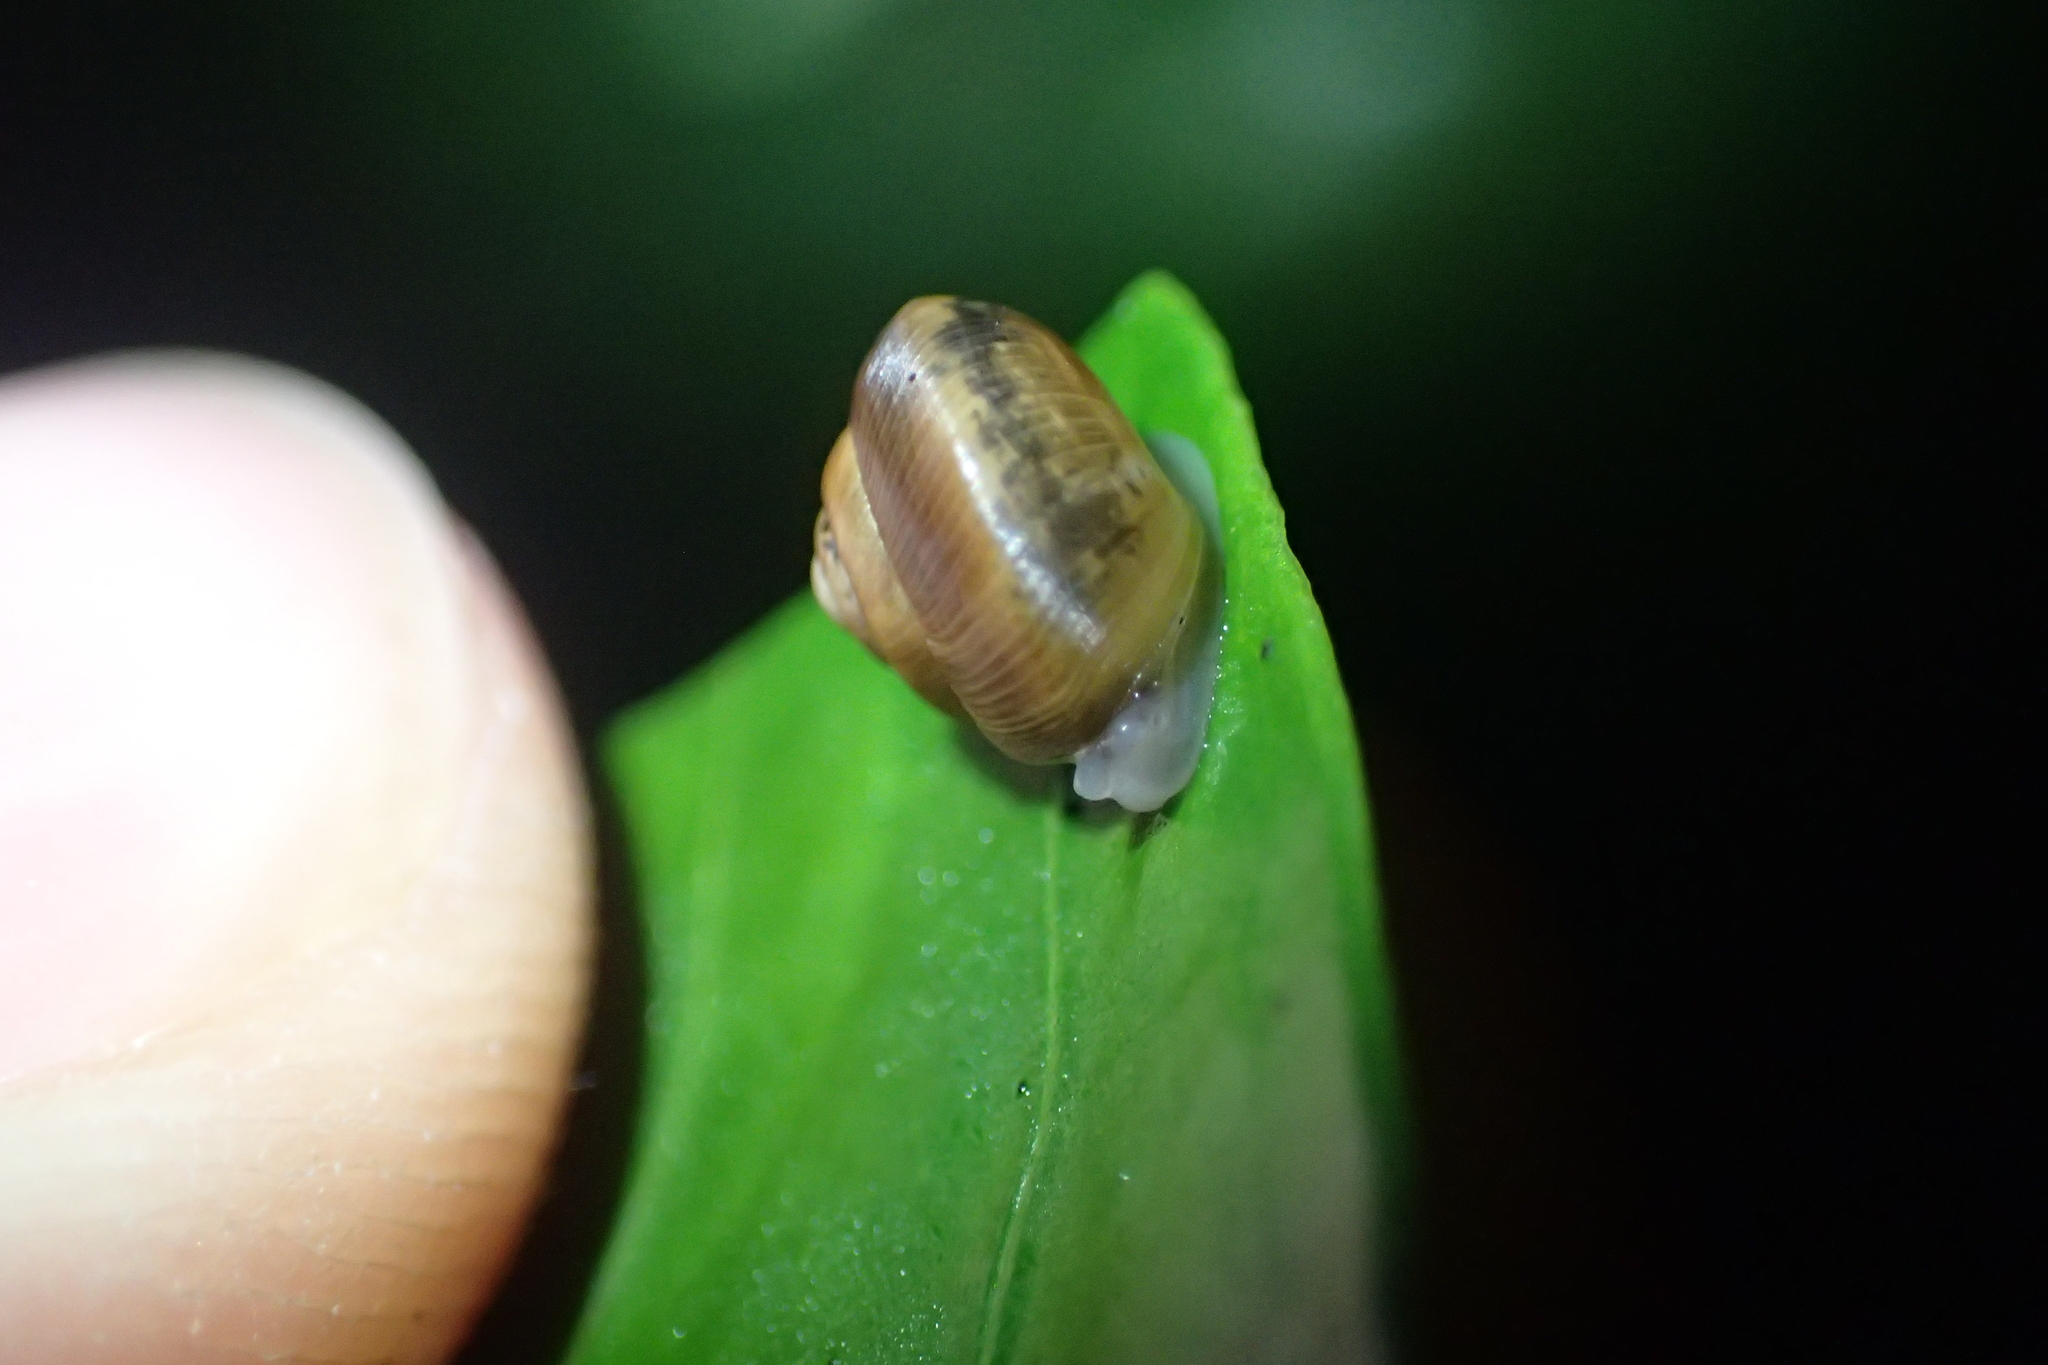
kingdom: Animalia
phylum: Mollusca
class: Gastropoda
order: Stylommatophora
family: Charopidae
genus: Serpho
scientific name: Serpho
